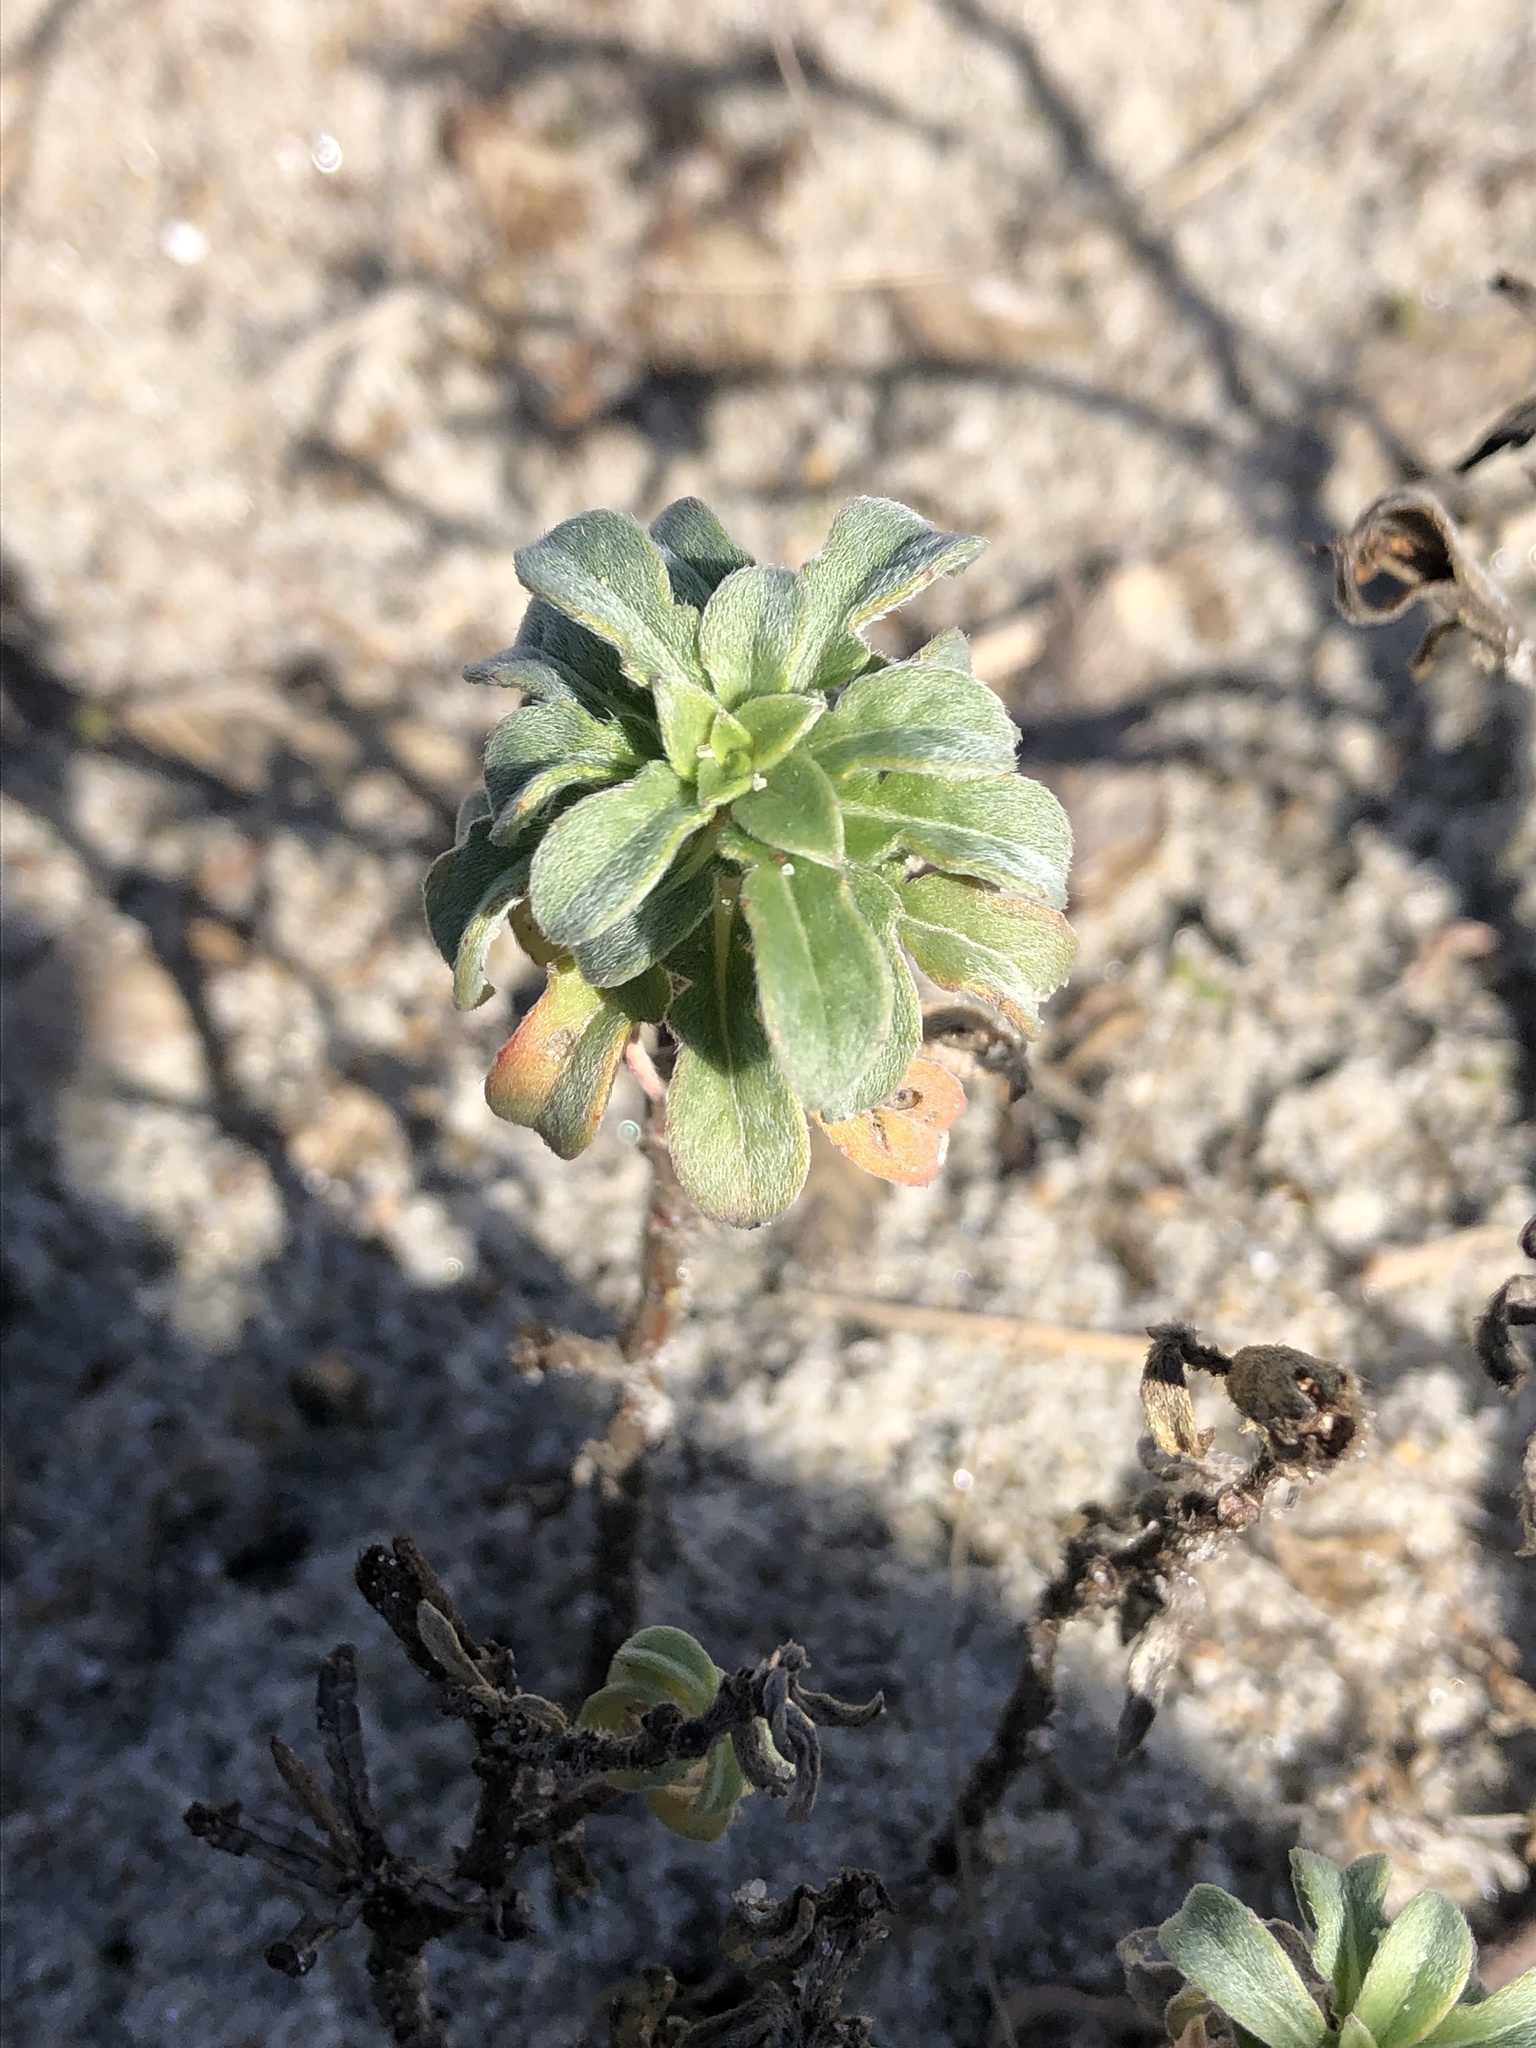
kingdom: Plantae
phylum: Tracheophyta
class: Magnoliopsida
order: Myrtales
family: Onagraceae
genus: Oenothera
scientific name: Oenothera humifusa
